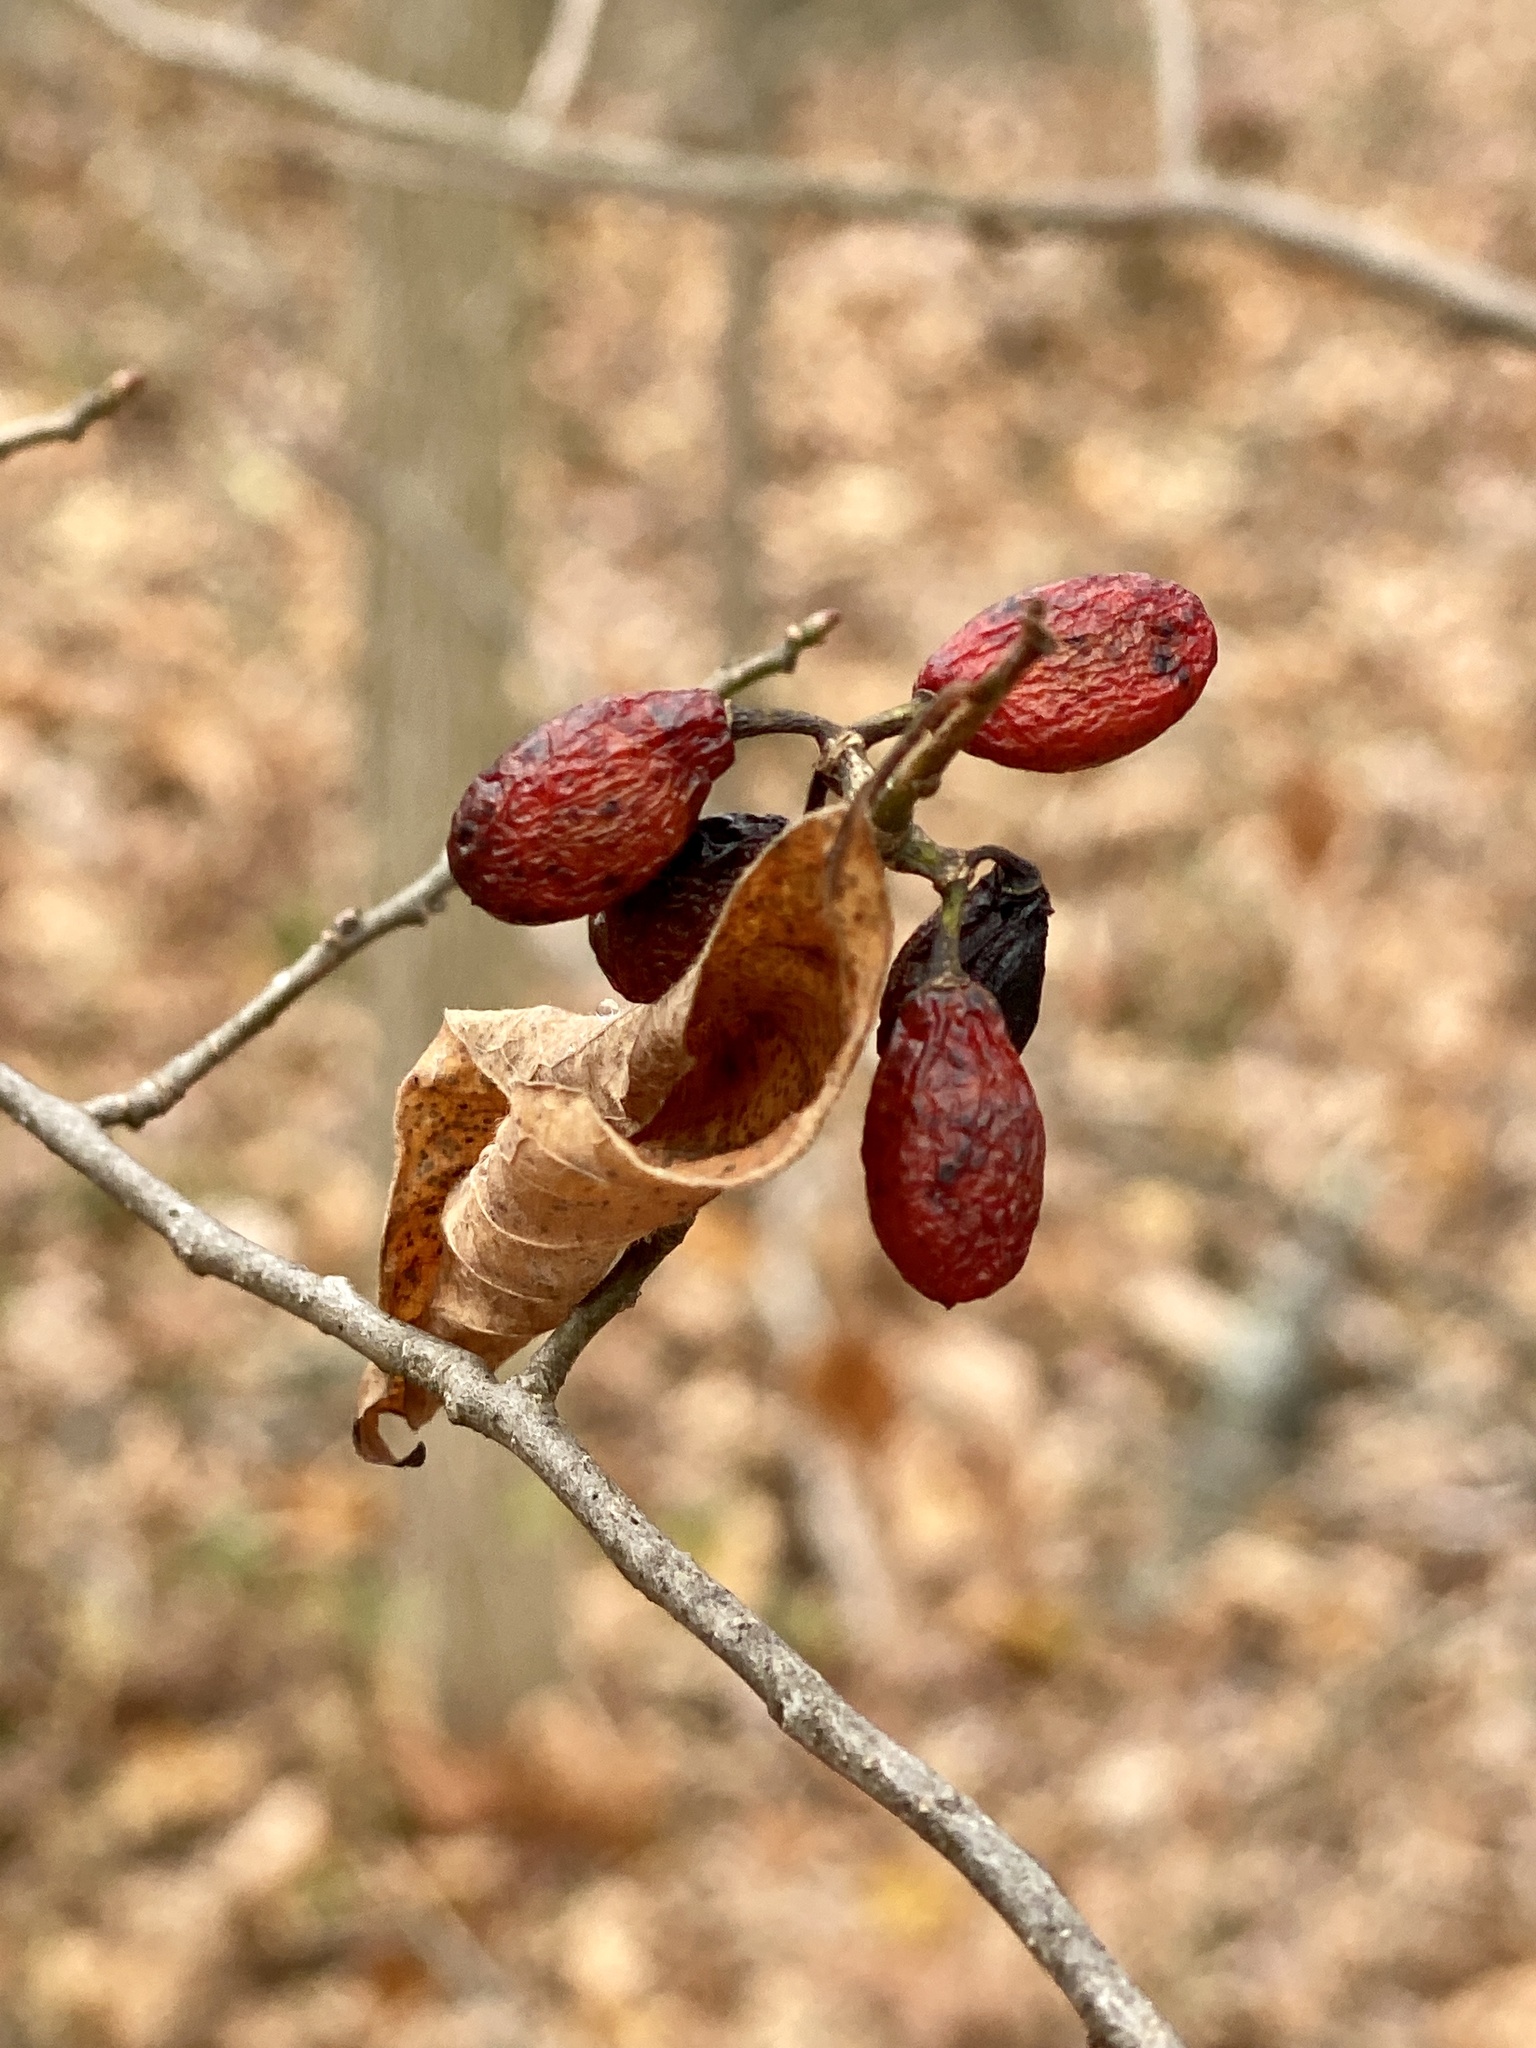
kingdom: Plantae
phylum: Tracheophyta
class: Magnoliopsida
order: Laurales
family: Lauraceae
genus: Lindera
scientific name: Lindera benzoin
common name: Spicebush
